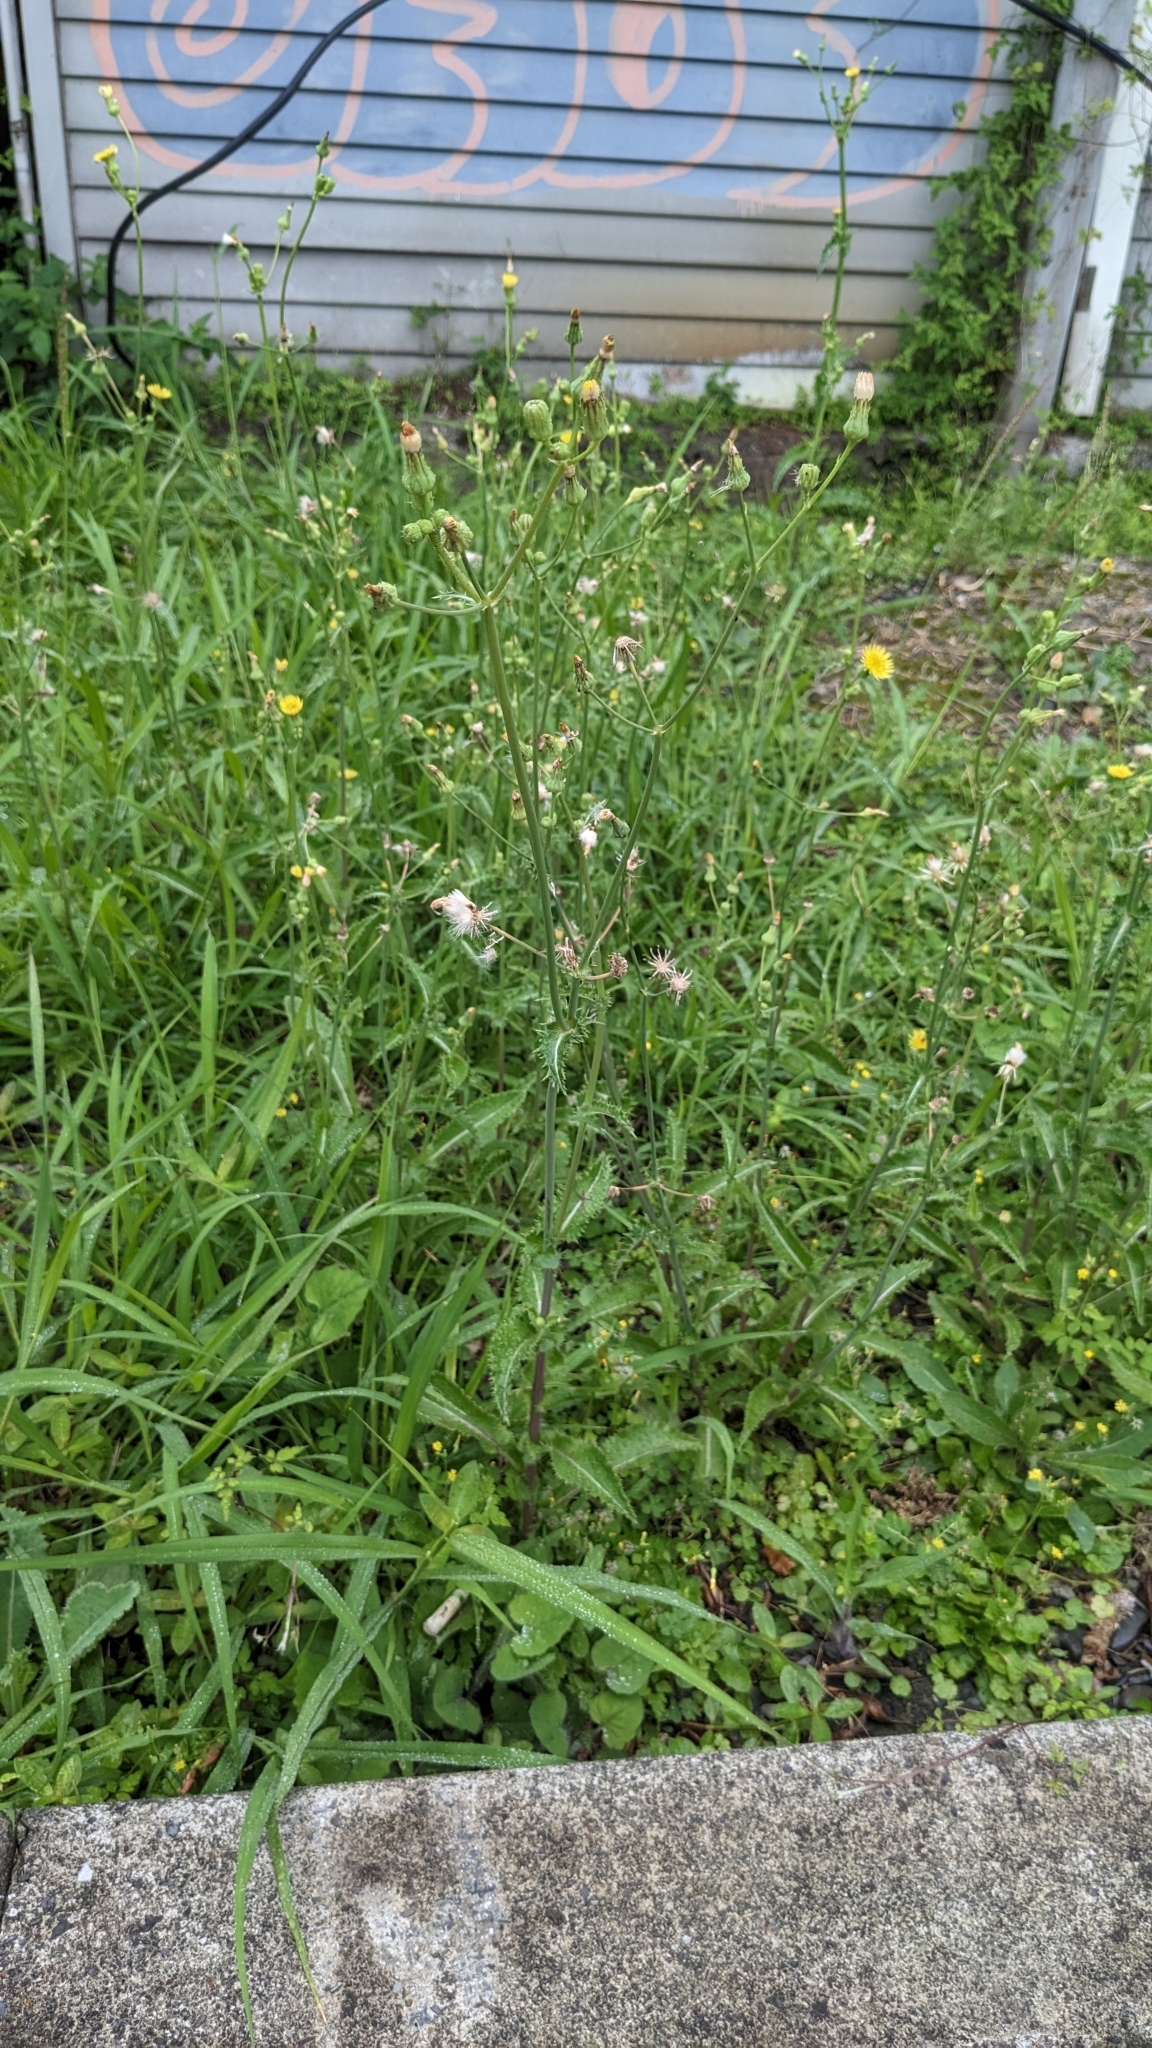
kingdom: Plantae
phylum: Tracheophyta
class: Magnoliopsida
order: Asterales
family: Asteraceae
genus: Sonchus
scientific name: Sonchus asper
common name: Prickly sow-thistle
